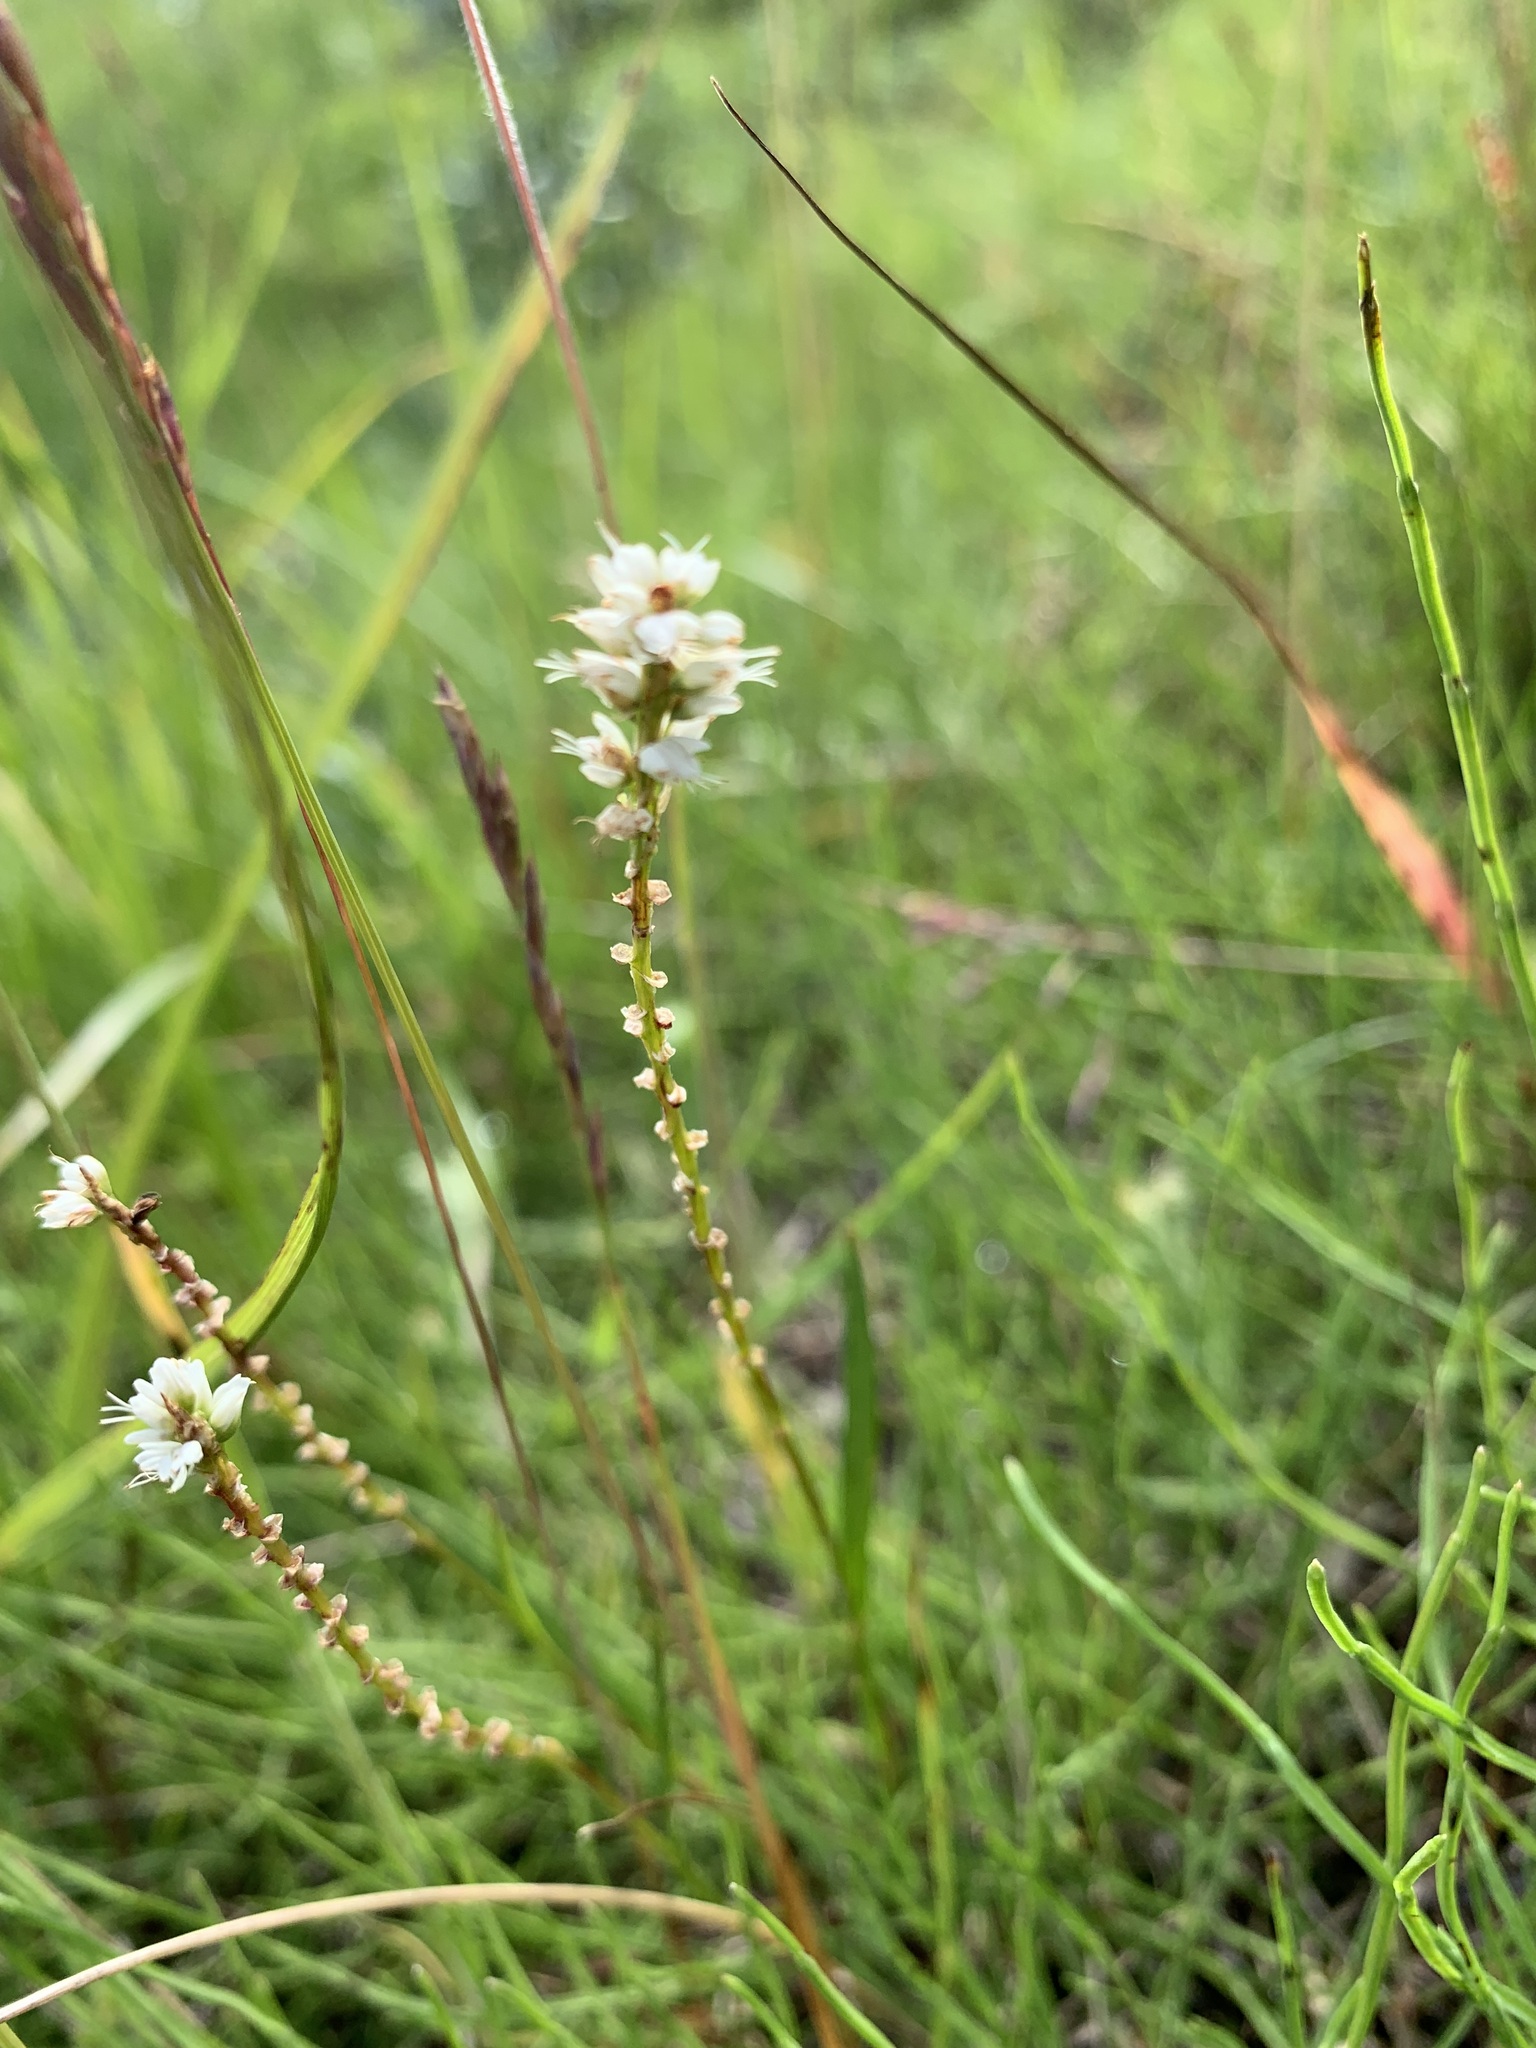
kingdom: Plantae
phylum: Tracheophyta
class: Magnoliopsida
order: Caryophyllales
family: Polygonaceae
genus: Bistorta
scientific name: Bistorta vivipara
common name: Alpine bistort
